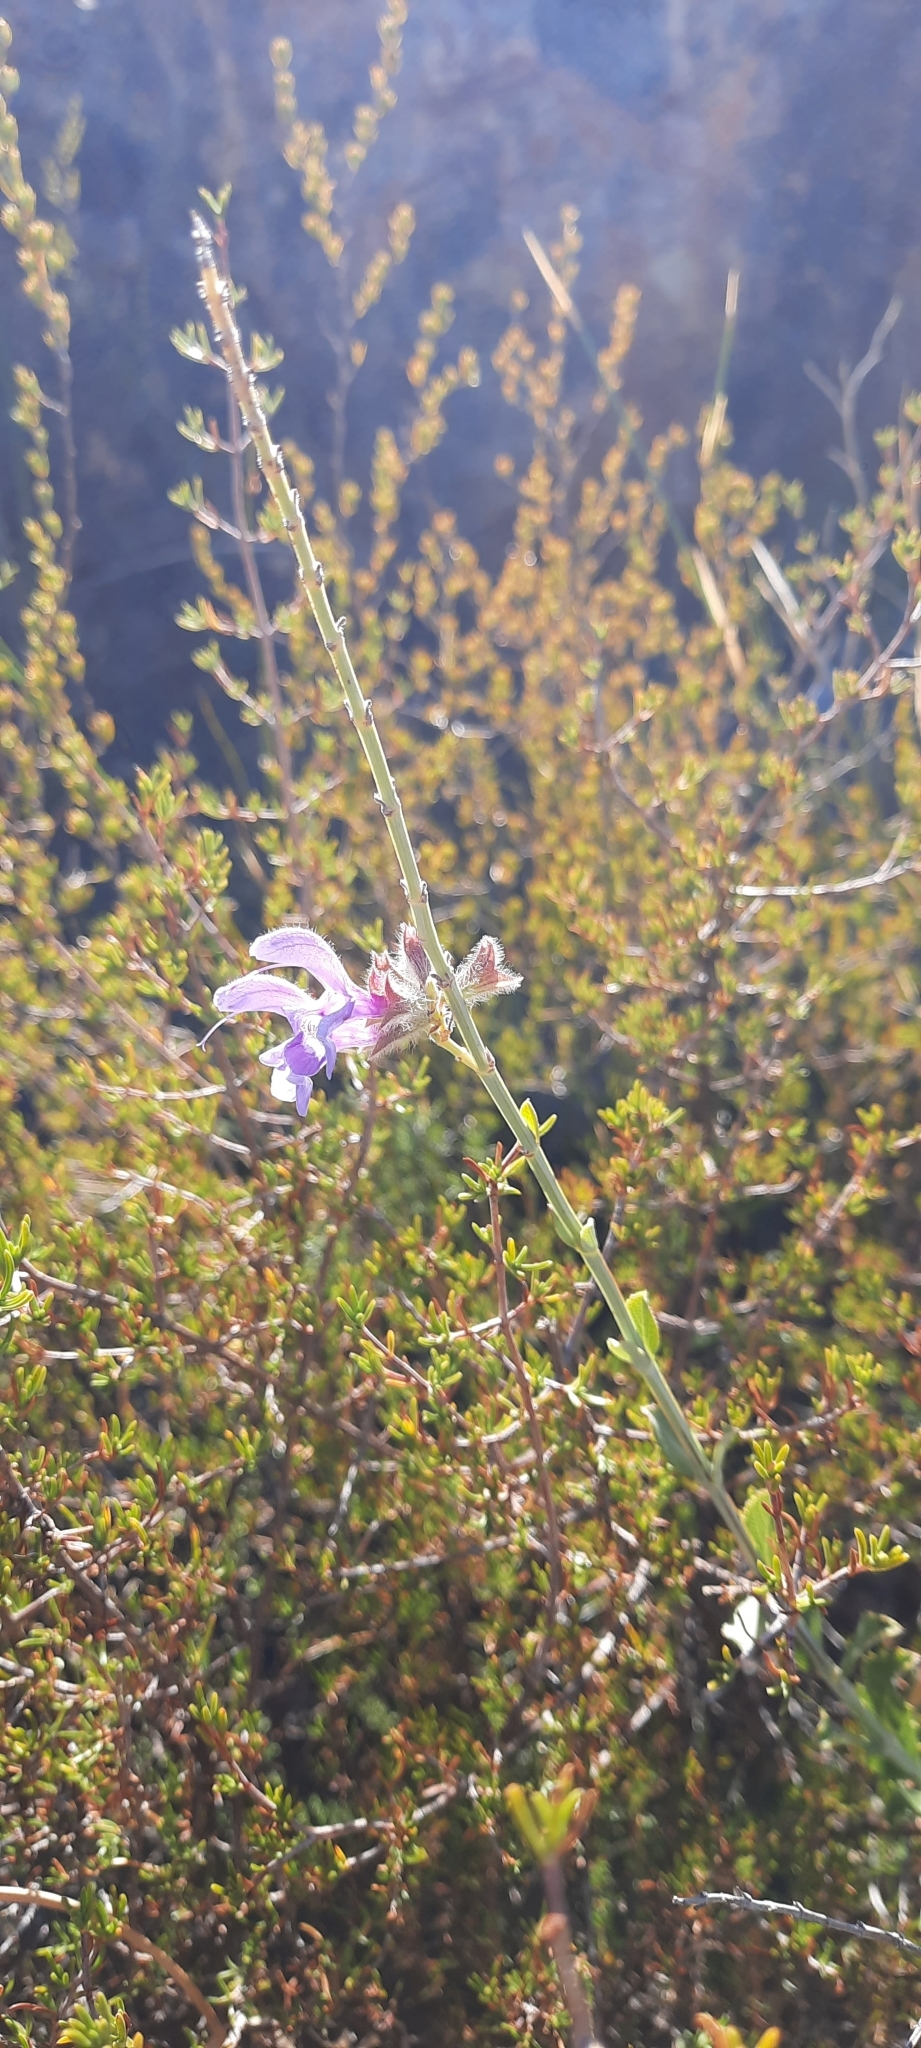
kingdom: Plantae
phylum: Tracheophyta
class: Magnoliopsida
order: Lamiales
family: Lamiaceae
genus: Salvia
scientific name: Salvia albicaulis
